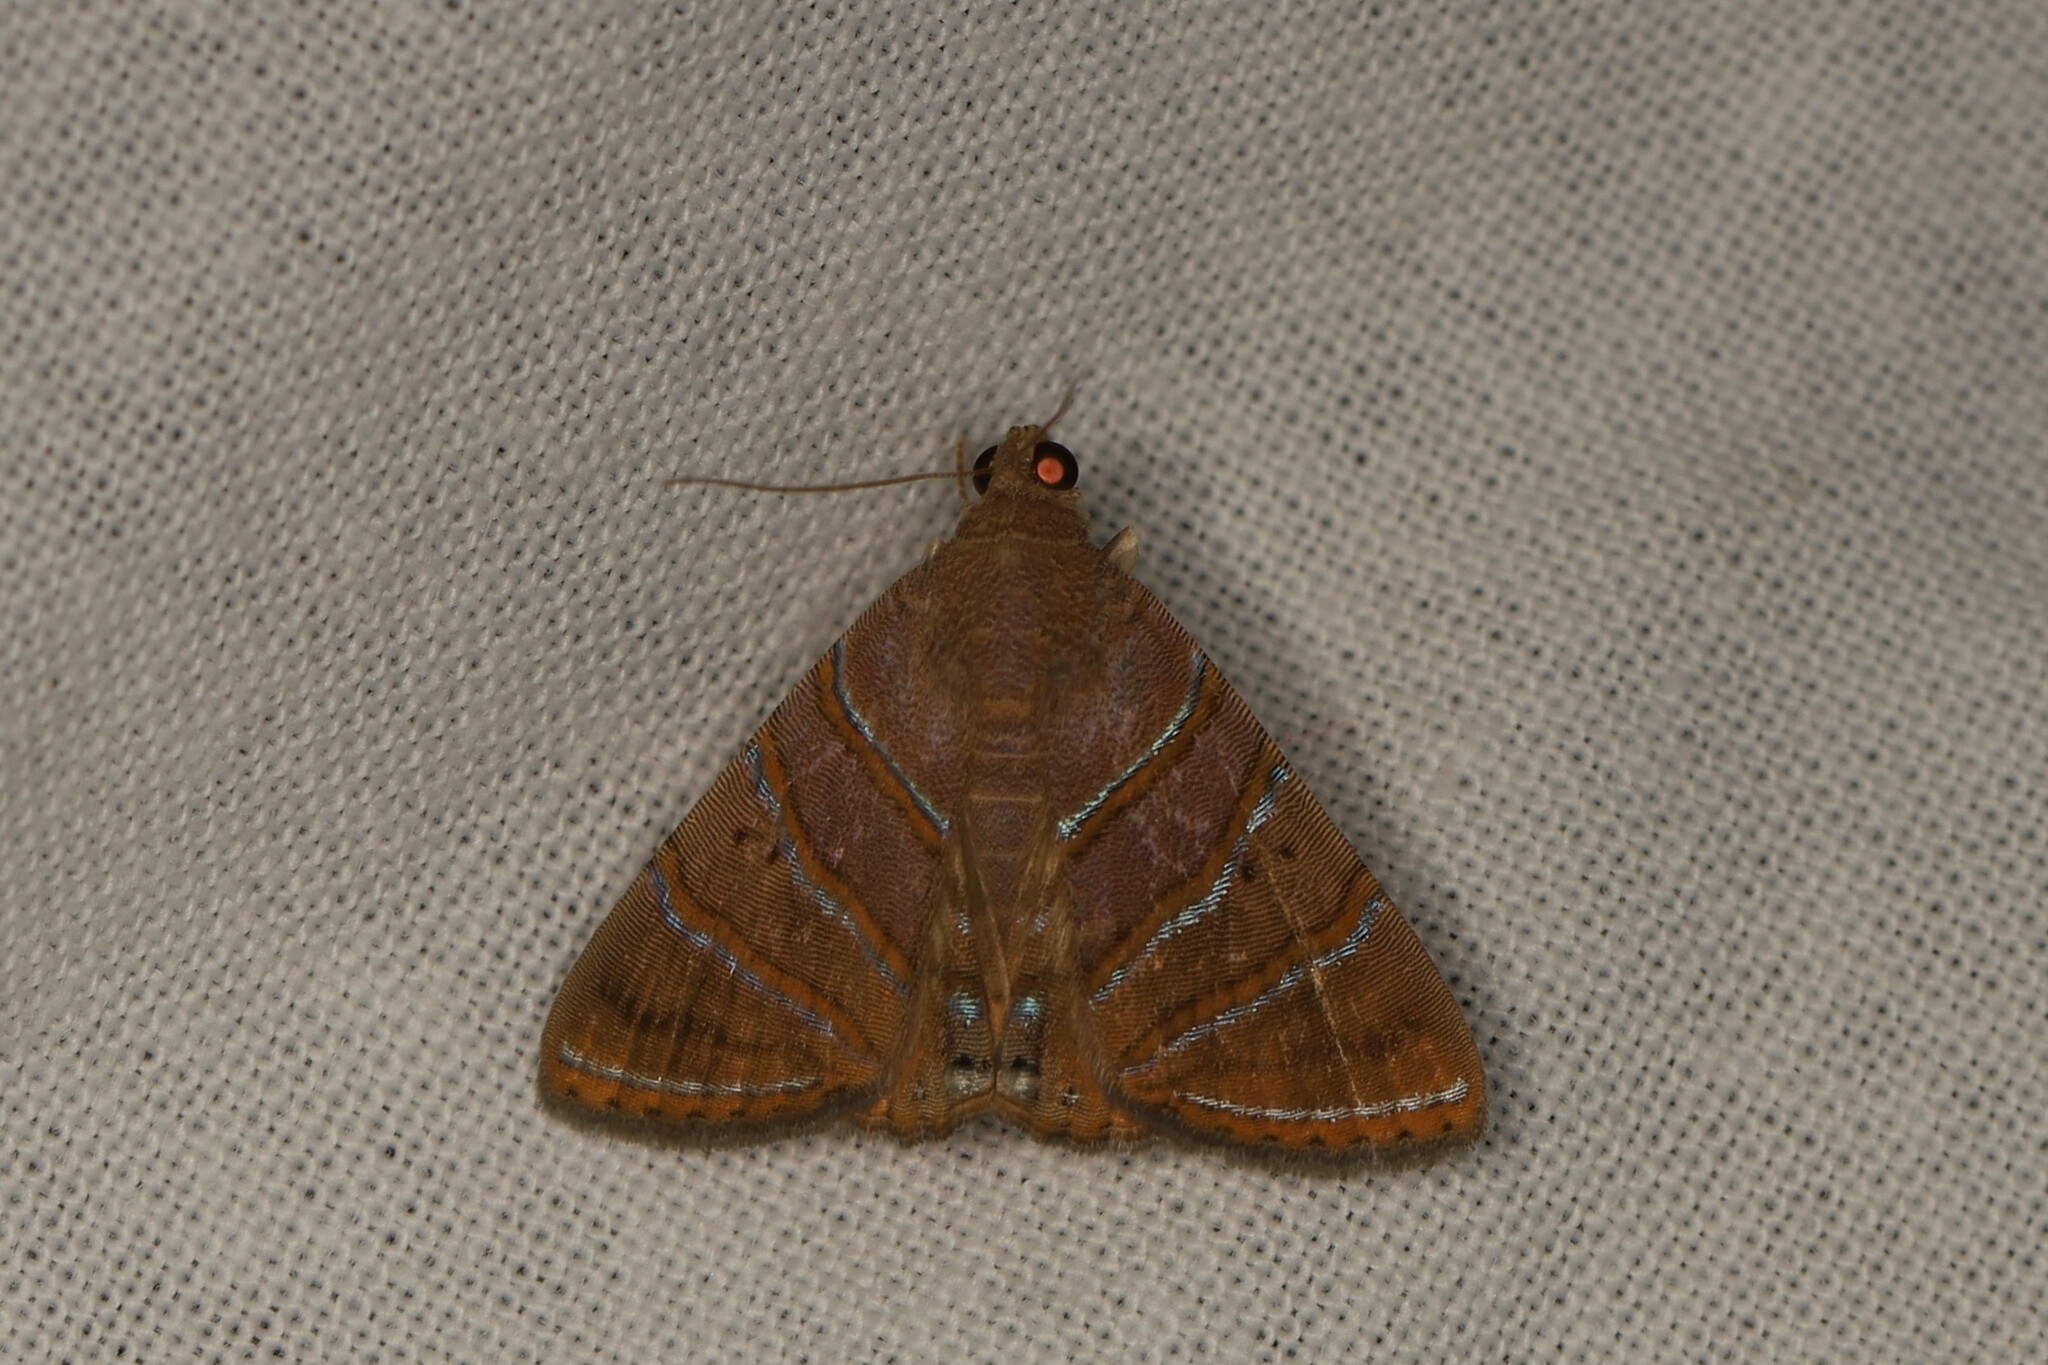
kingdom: Animalia
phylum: Arthropoda
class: Insecta
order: Lepidoptera
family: Erebidae
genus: Eulepidotis
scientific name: Eulepidotis inclyta
